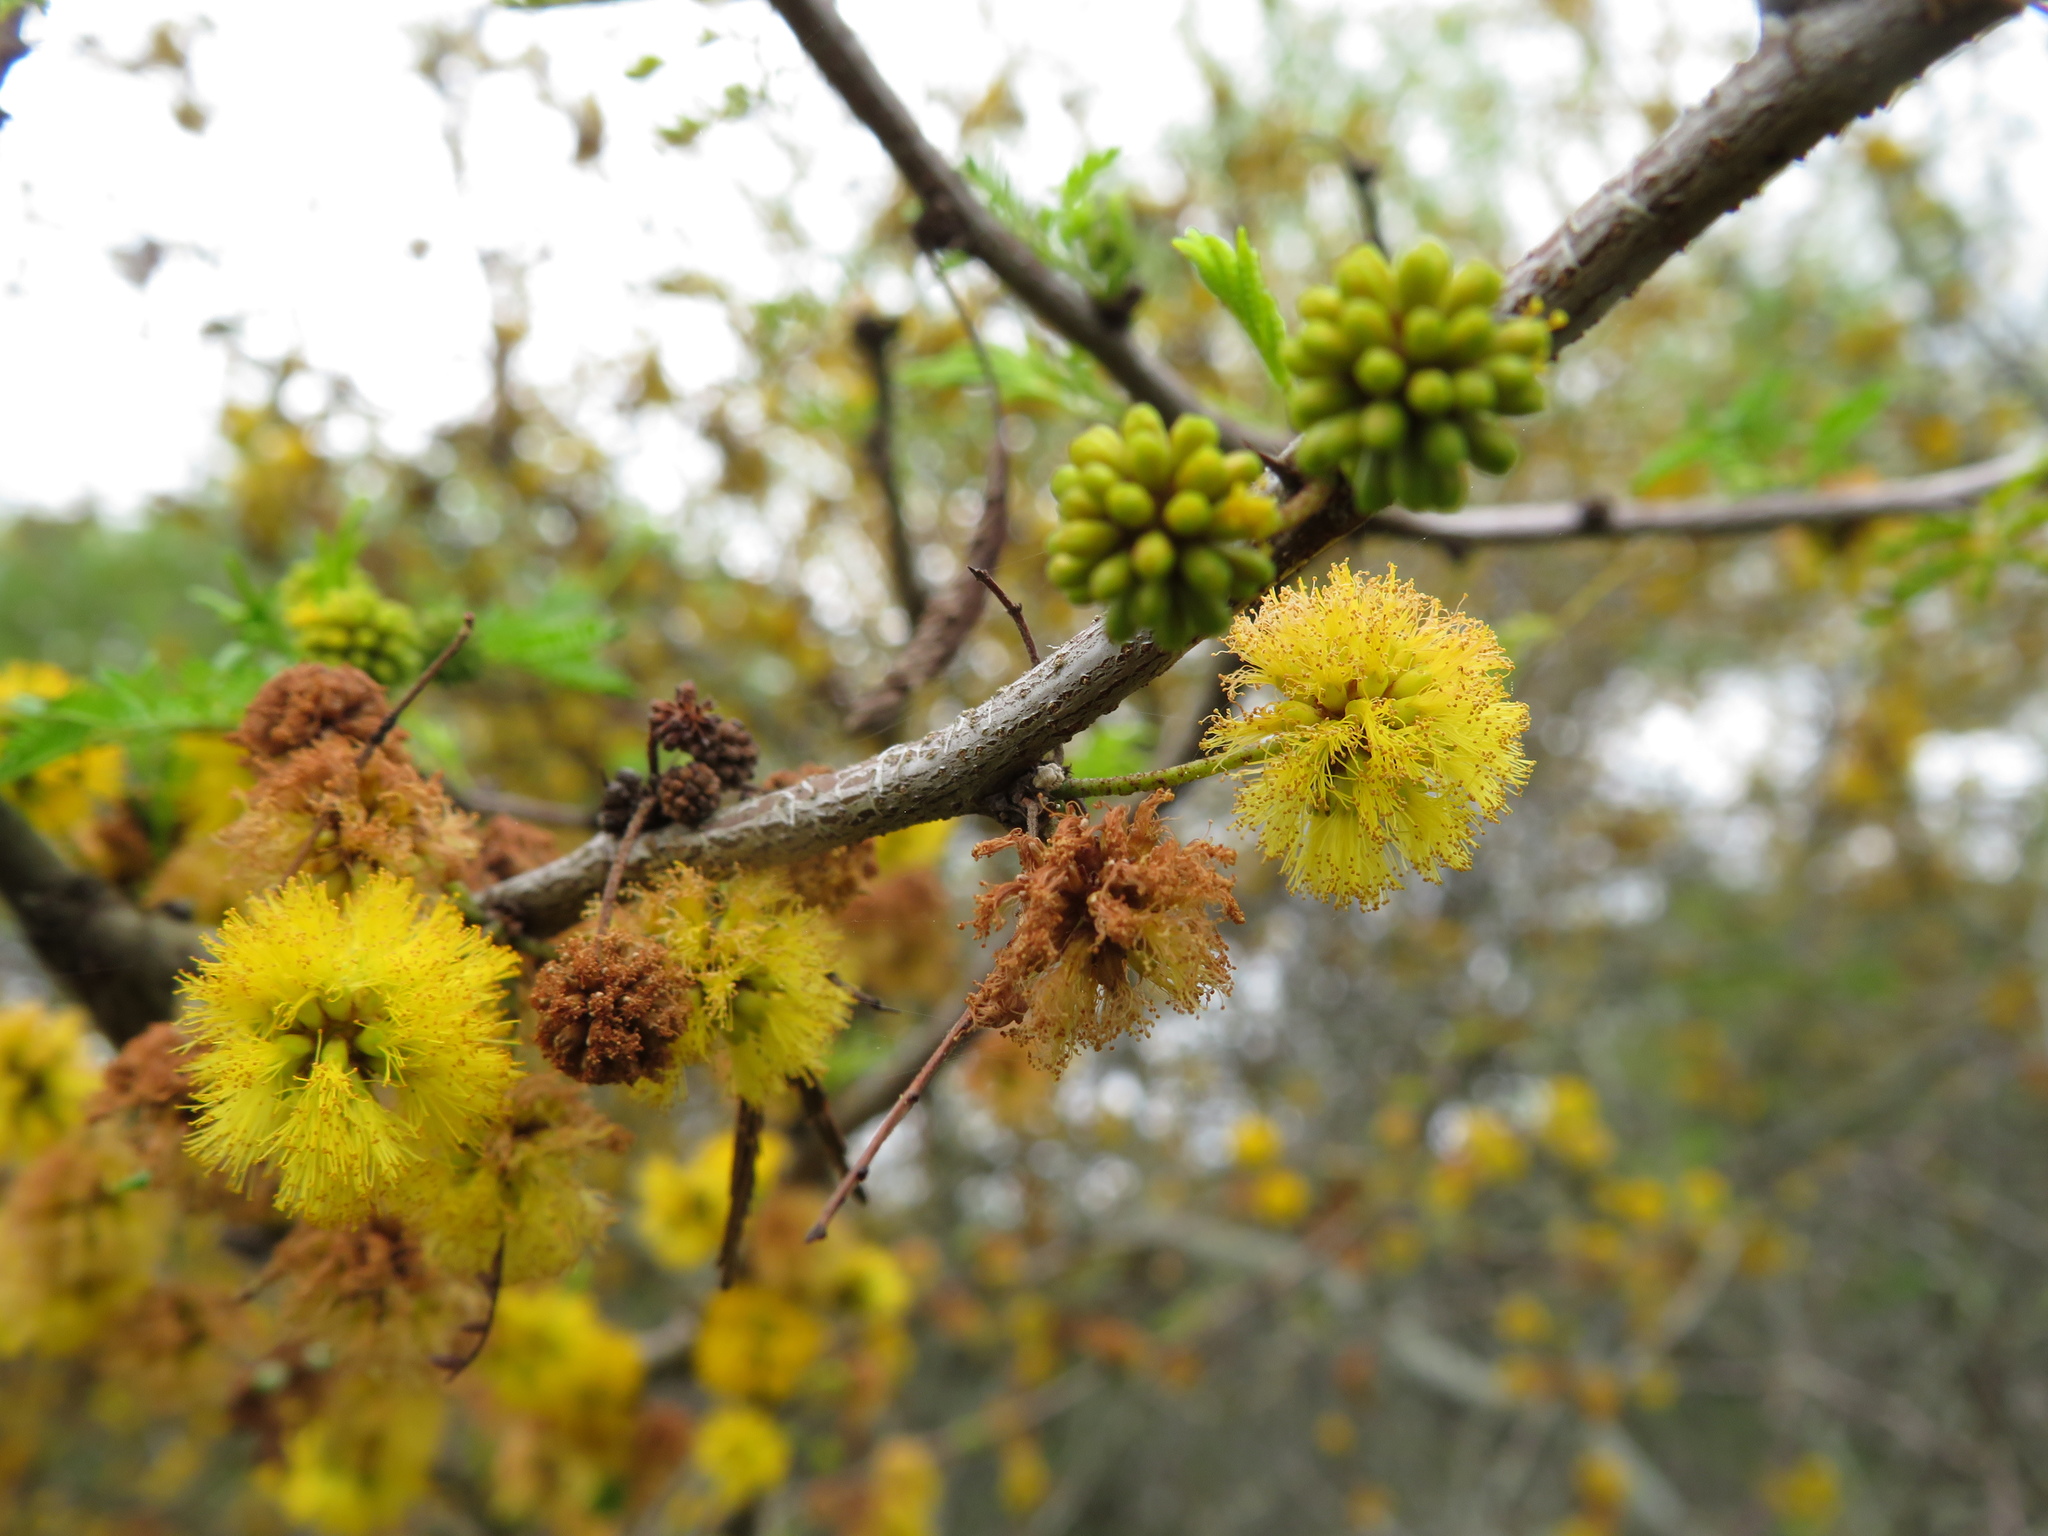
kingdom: Plantae
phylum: Tracheophyta
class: Magnoliopsida
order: Fabales
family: Fabaceae
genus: Vachellia
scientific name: Vachellia caven
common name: Roman cassie
